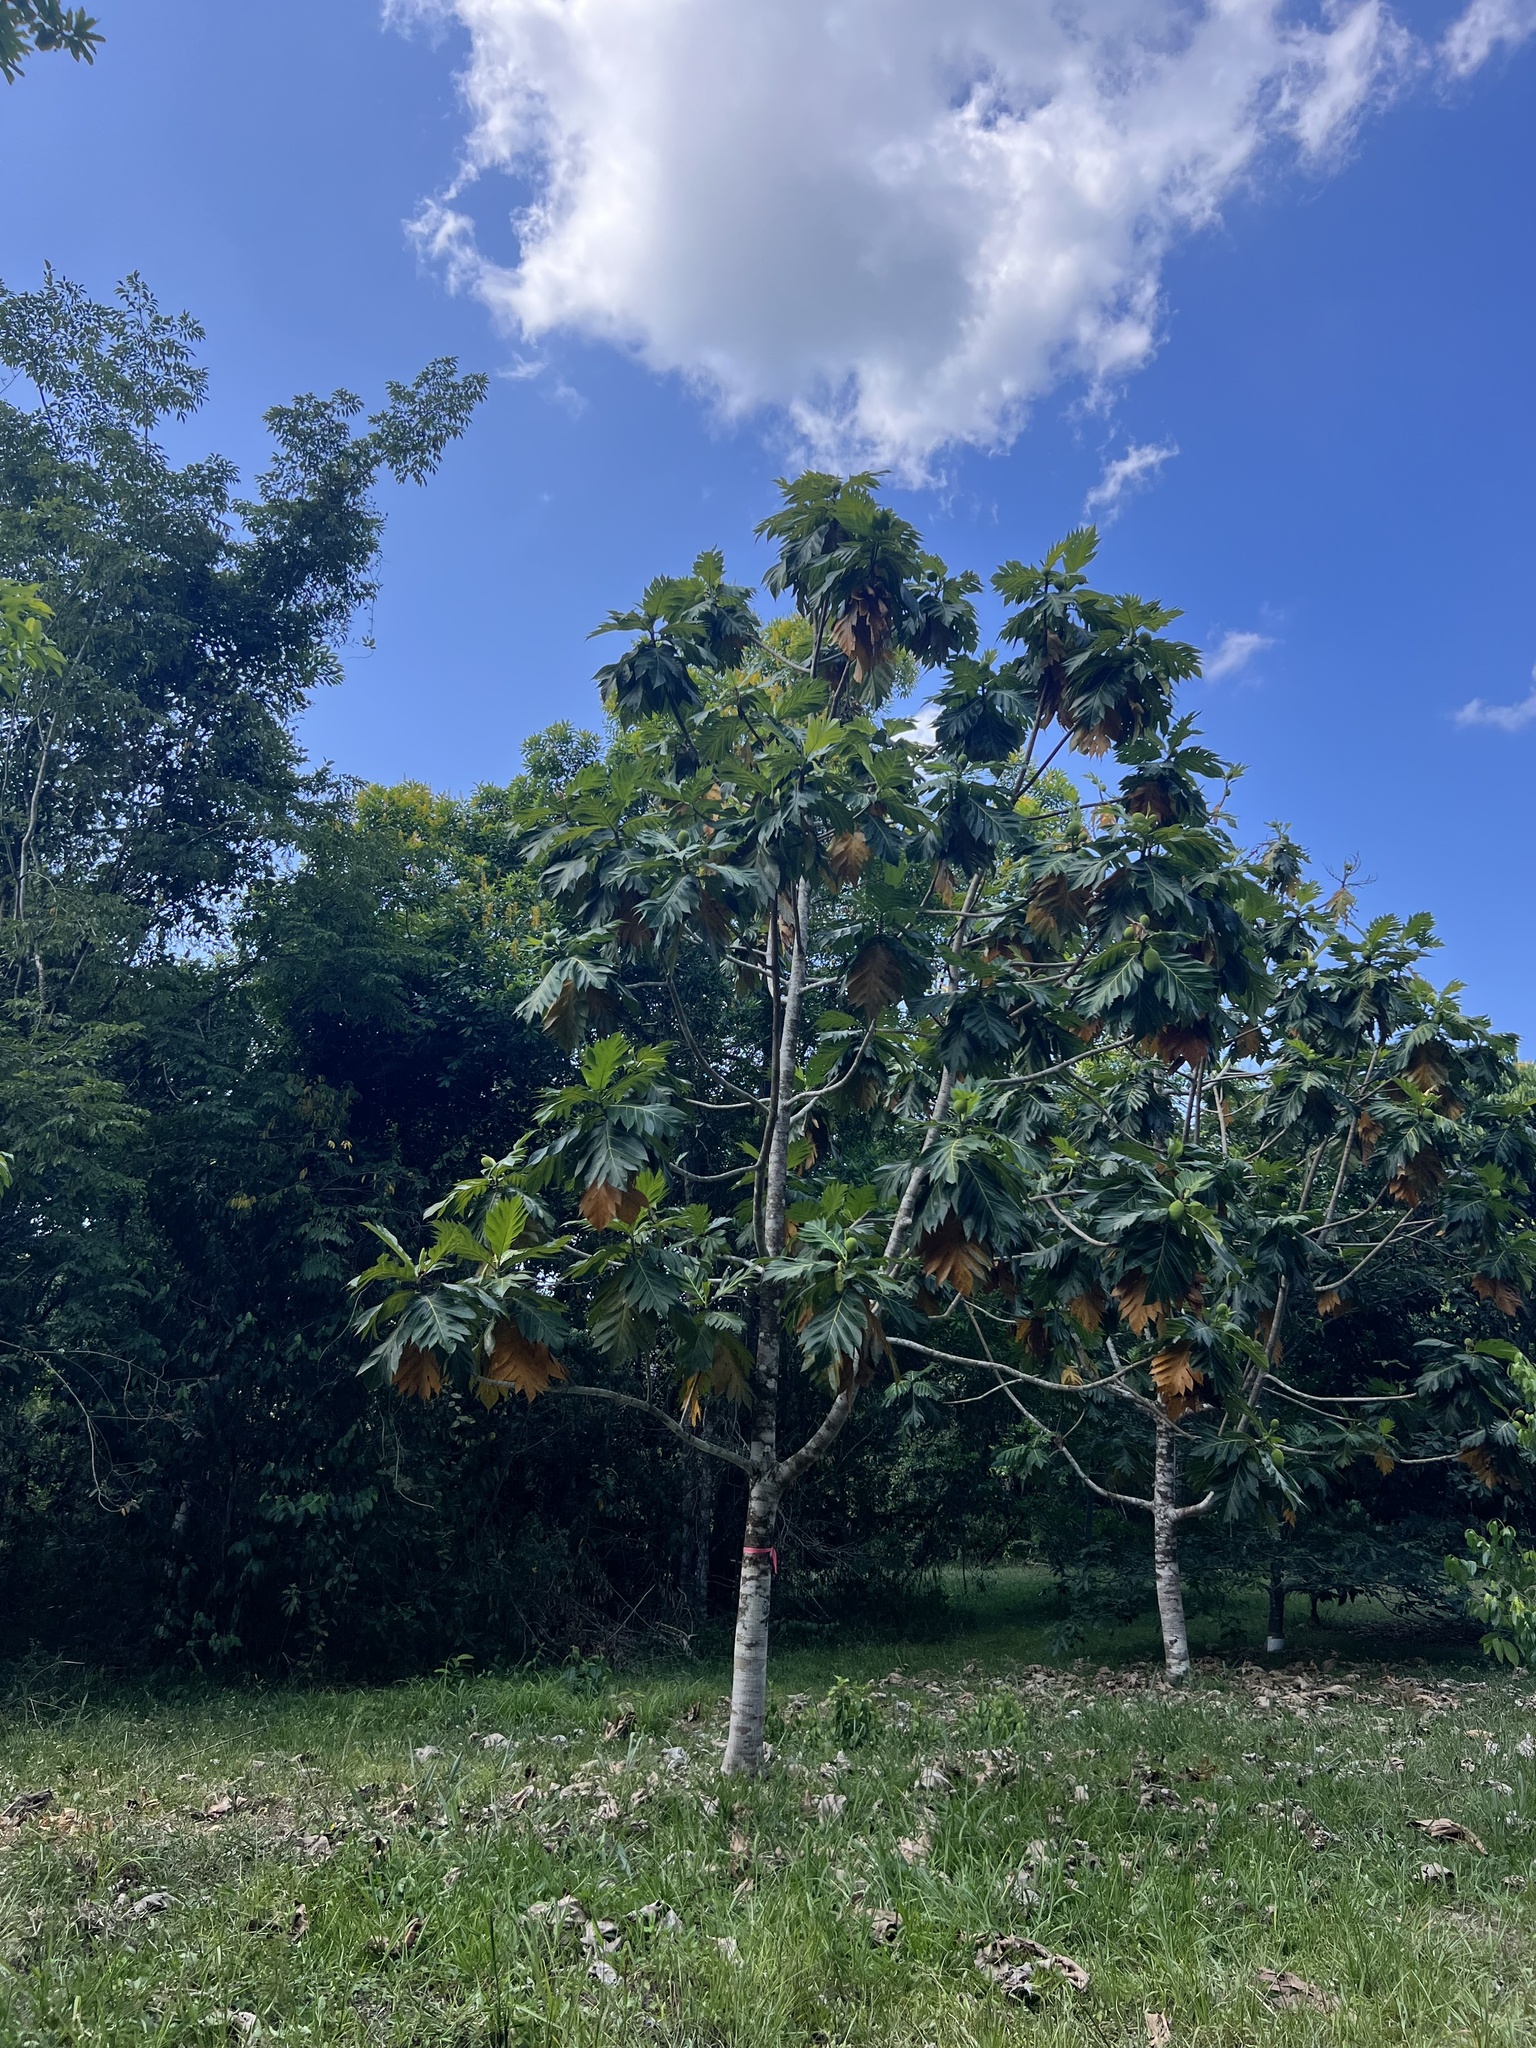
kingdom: Plantae
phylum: Tracheophyta
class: Magnoliopsida
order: Rosales
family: Moraceae
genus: Artocarpus
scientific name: Artocarpus altilis
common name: Breadfruit
